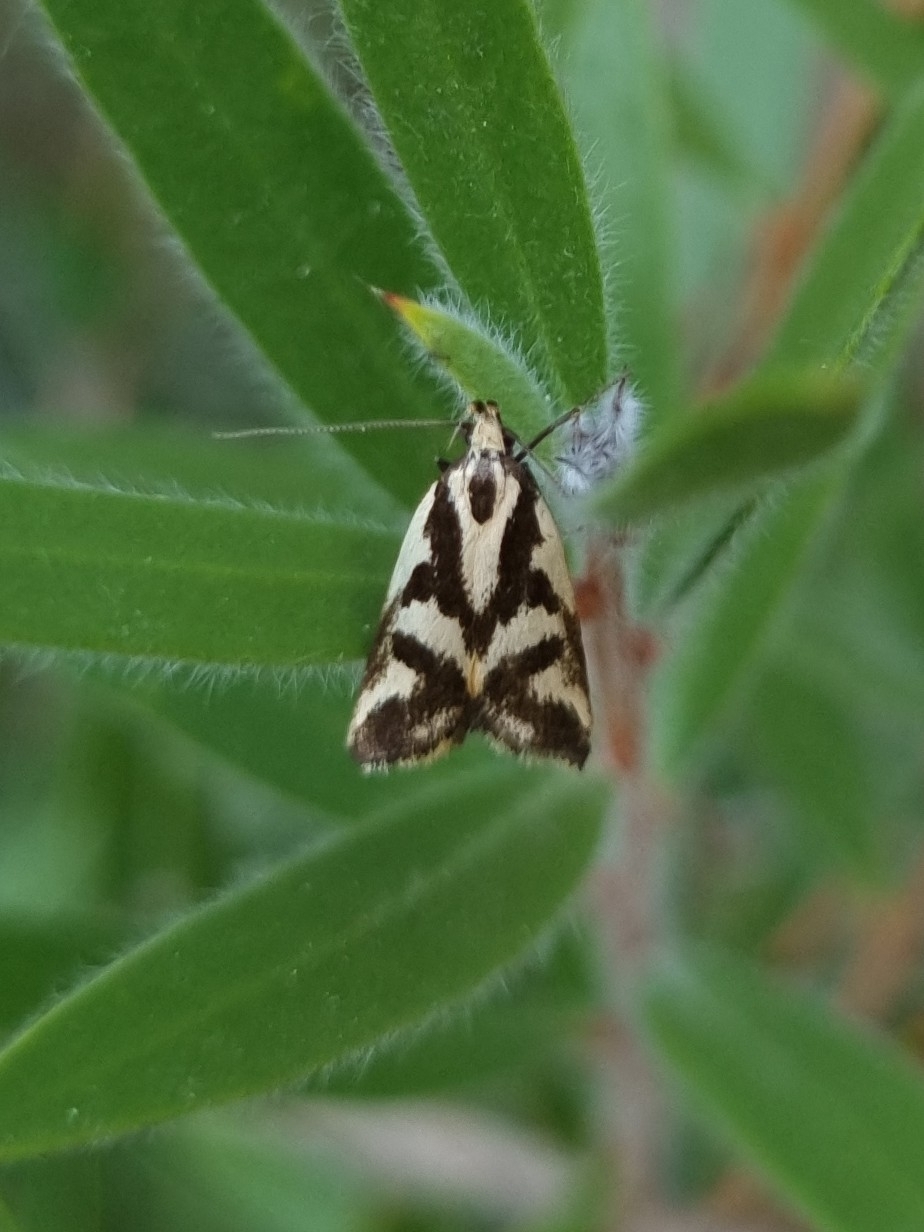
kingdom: Animalia
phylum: Arthropoda
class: Insecta
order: Lepidoptera
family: Oecophoridae
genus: Epithymema
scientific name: Epithymema incomposita
